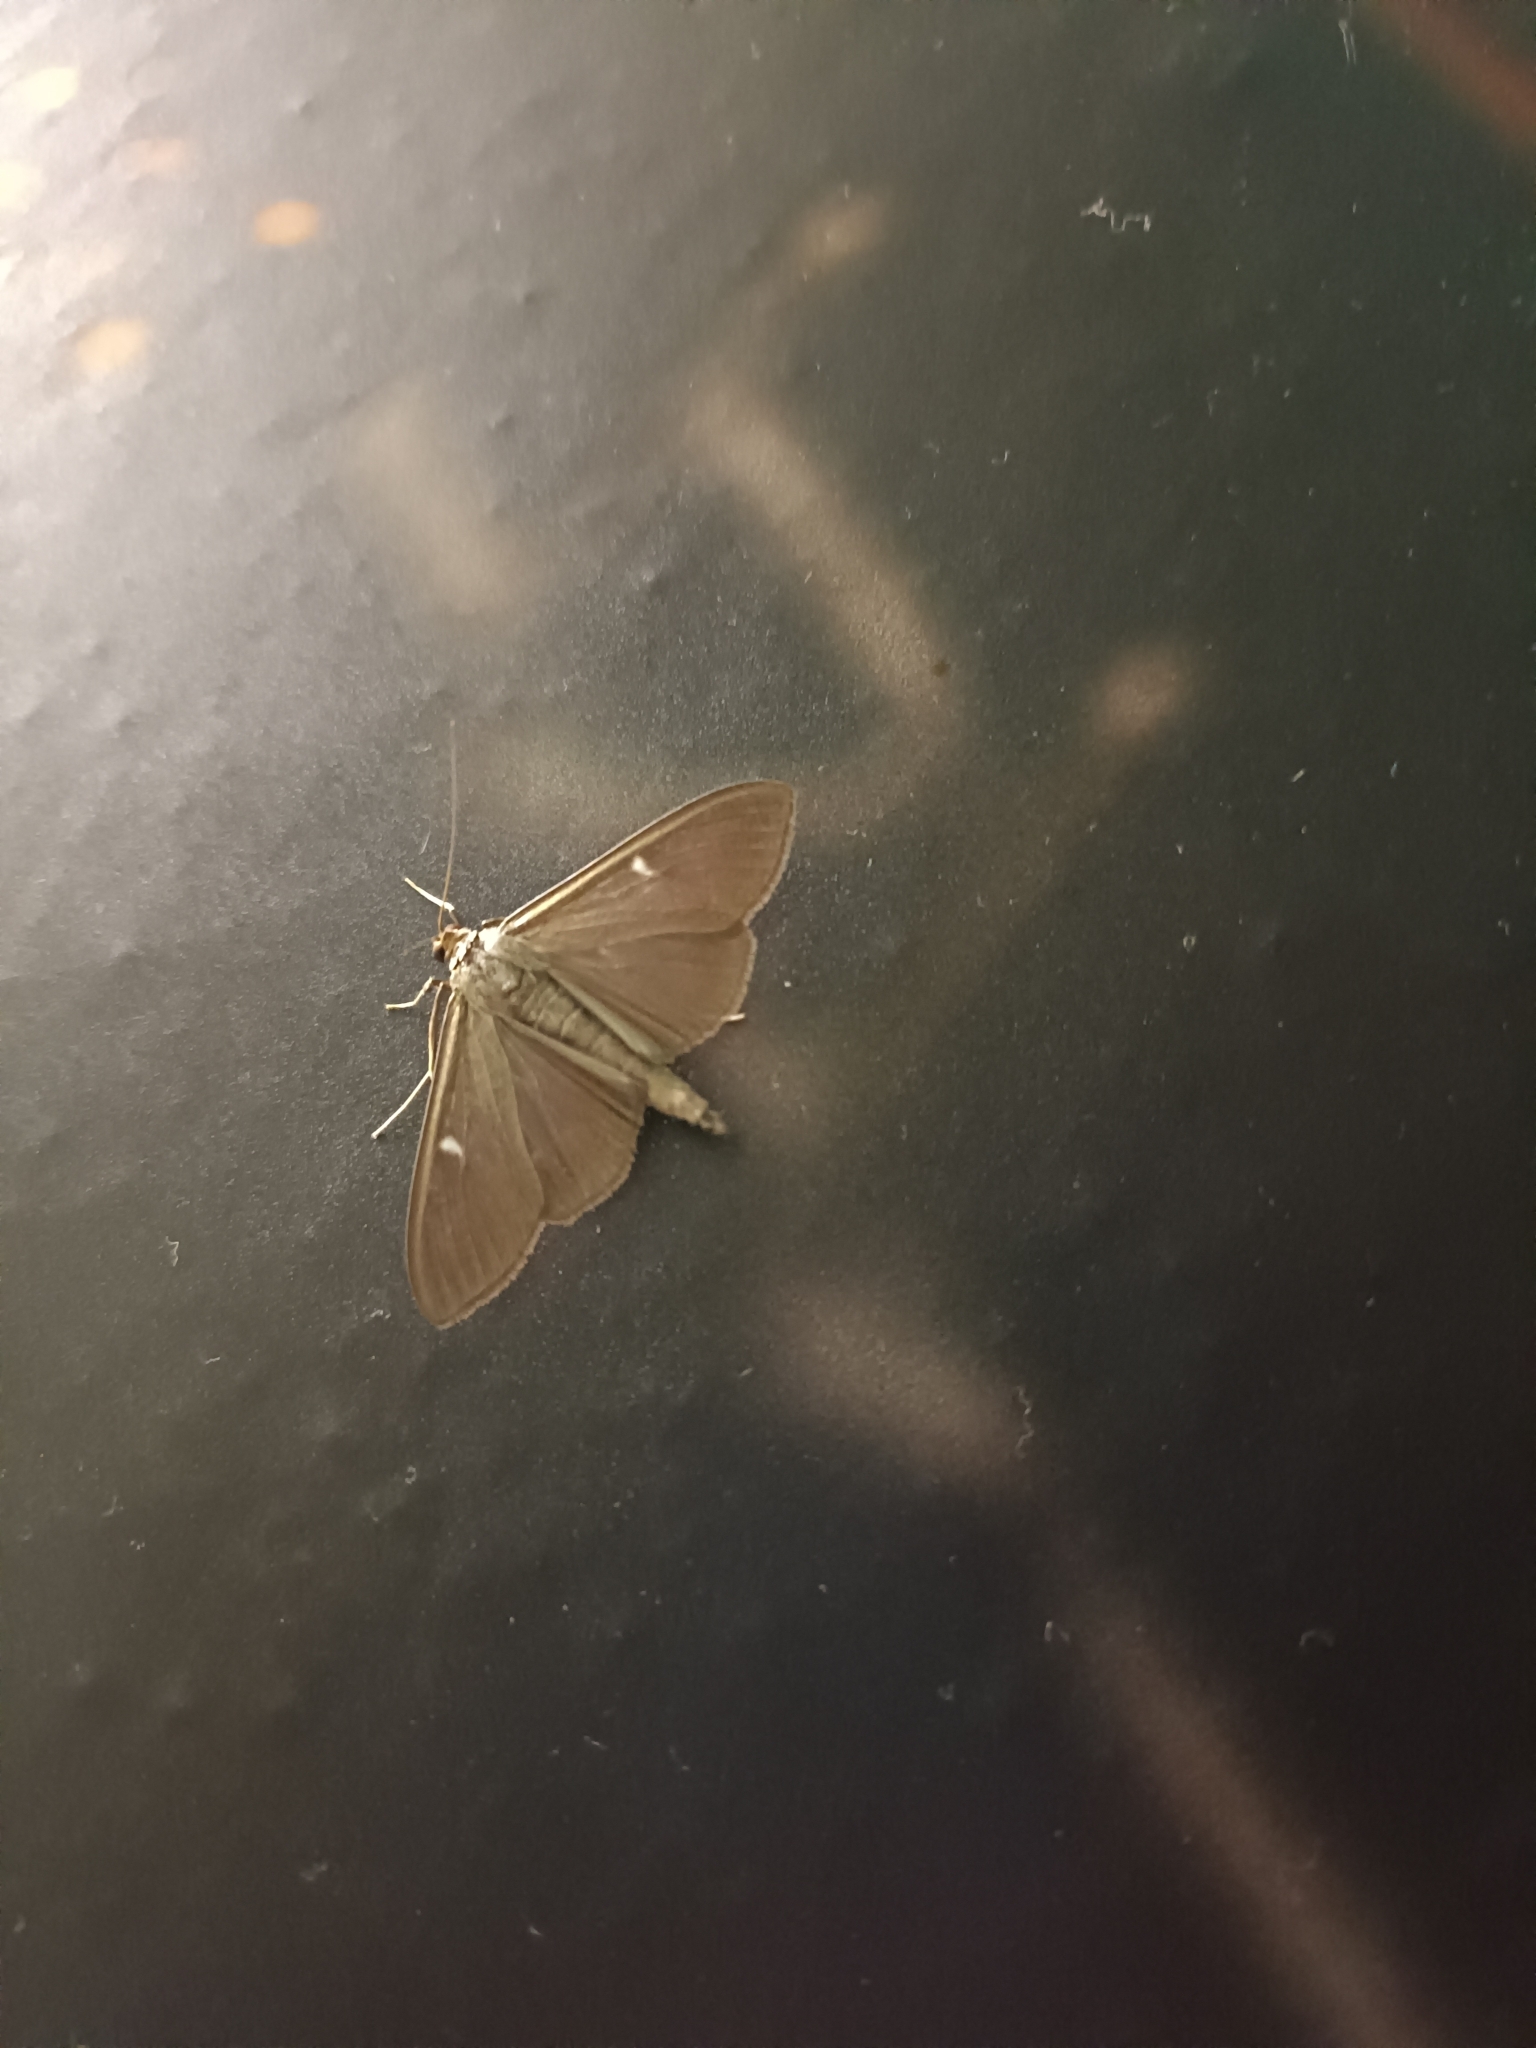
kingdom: Animalia
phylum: Arthropoda
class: Insecta
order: Lepidoptera
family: Crambidae
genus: Cydalima
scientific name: Cydalima perspectalis
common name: Box tree moth
